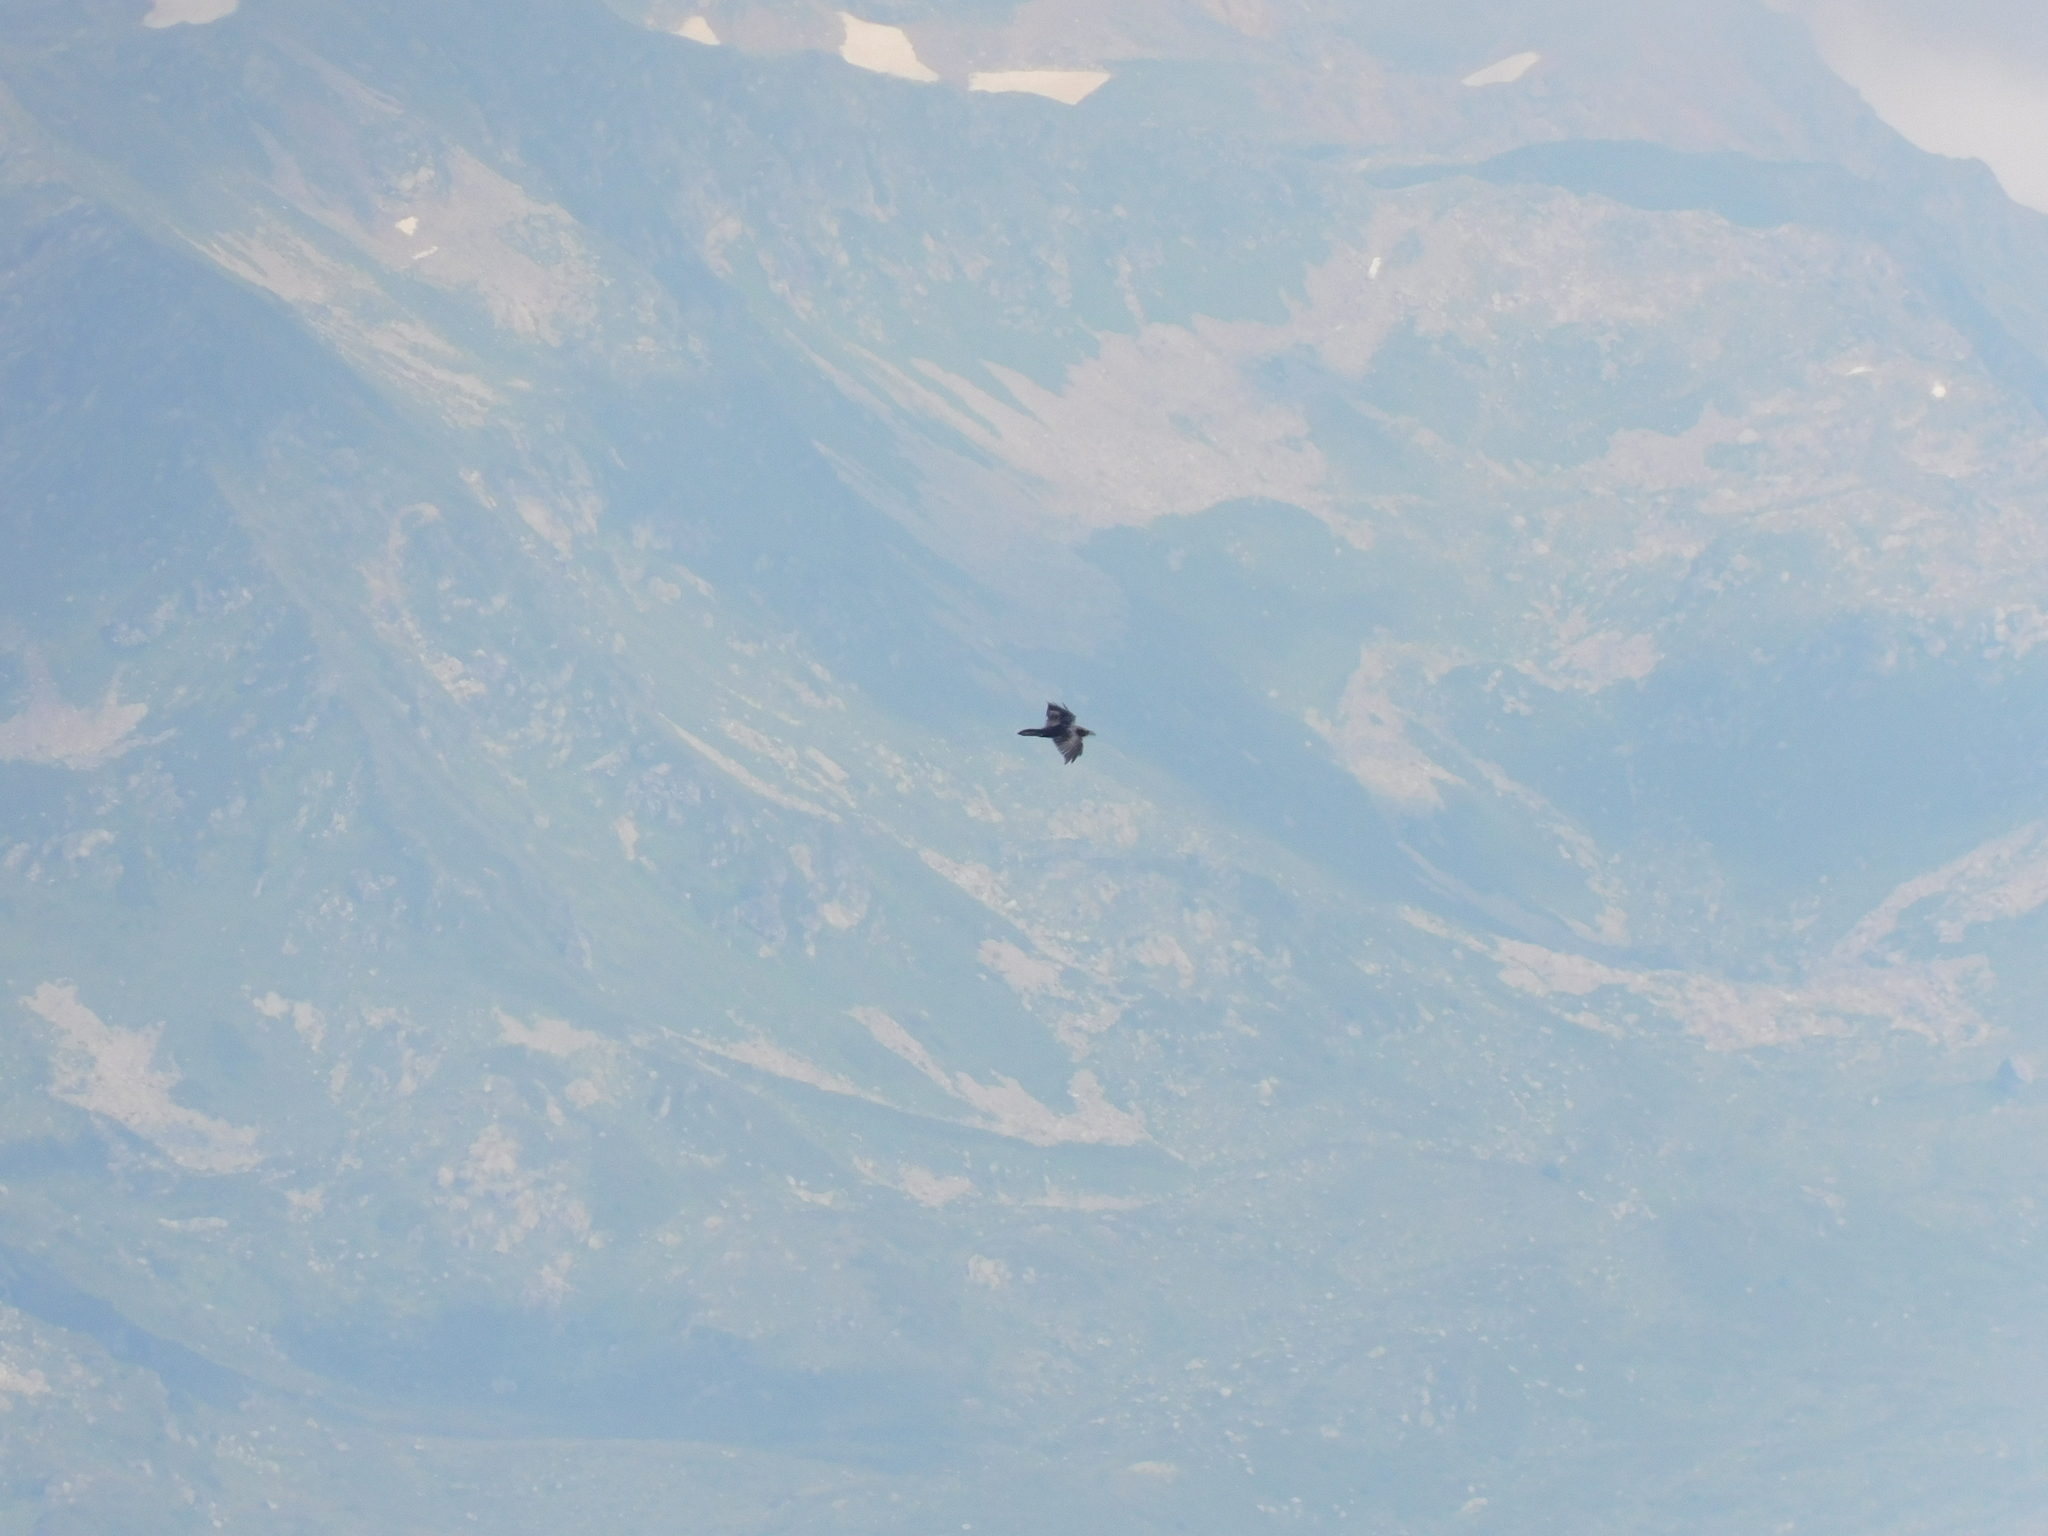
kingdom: Animalia
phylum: Chordata
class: Aves
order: Passeriformes
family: Corvidae
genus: Corvus
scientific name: Corvus corax
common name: Common raven
